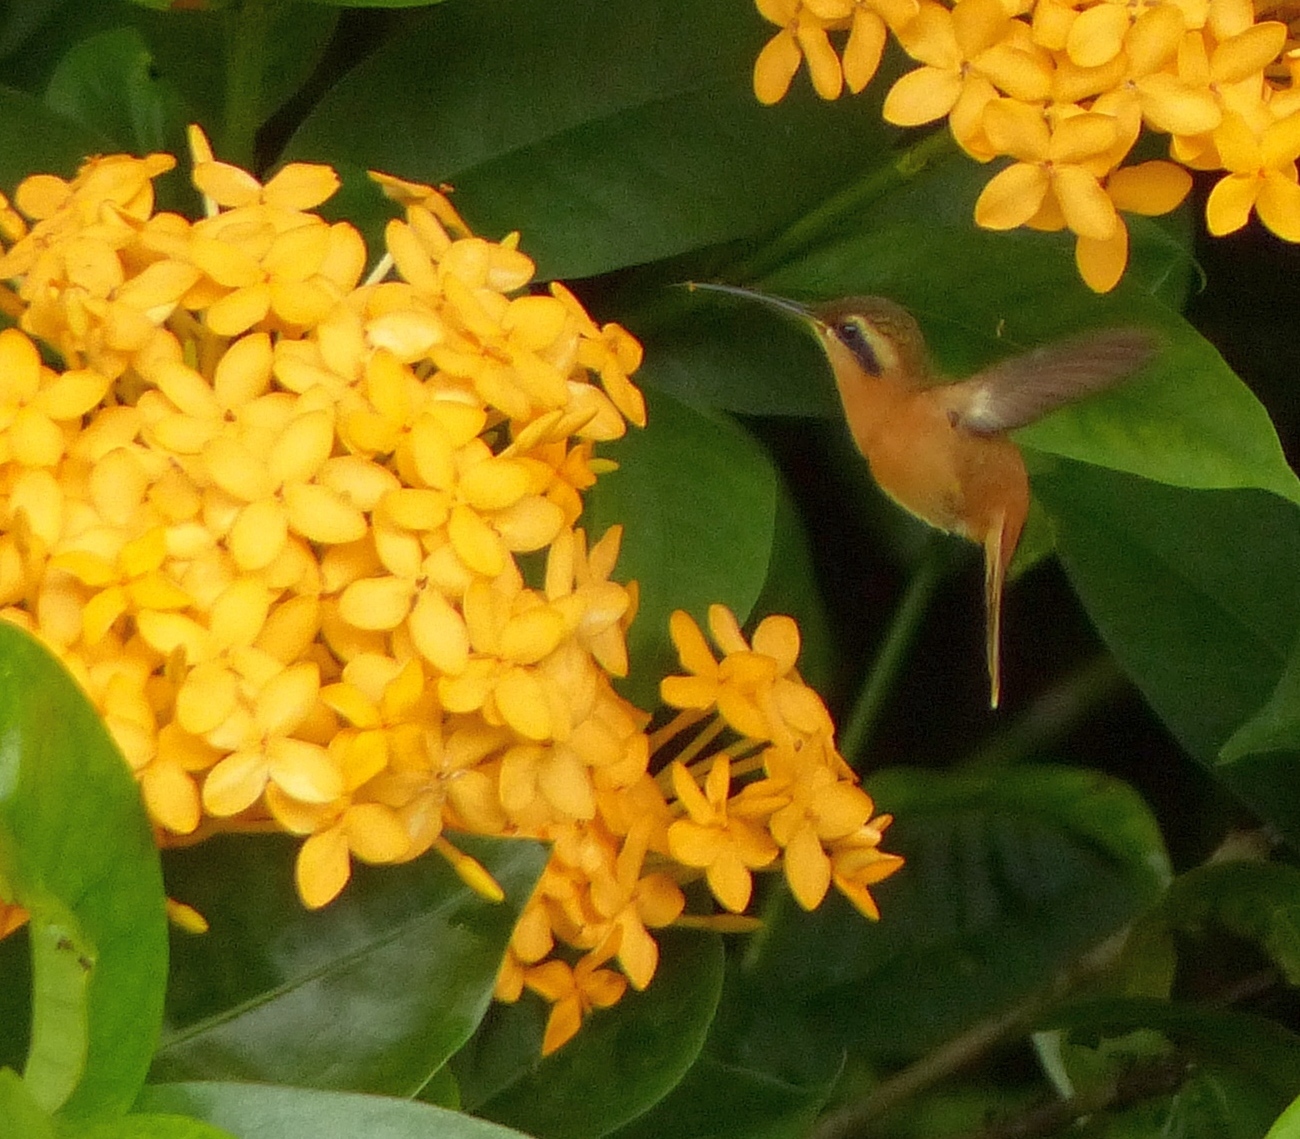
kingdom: Animalia
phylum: Chordata
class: Aves
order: Apodiformes
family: Trochilidae
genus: Phaethornis
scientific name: Phaethornis ruber
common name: Reddish hermit
